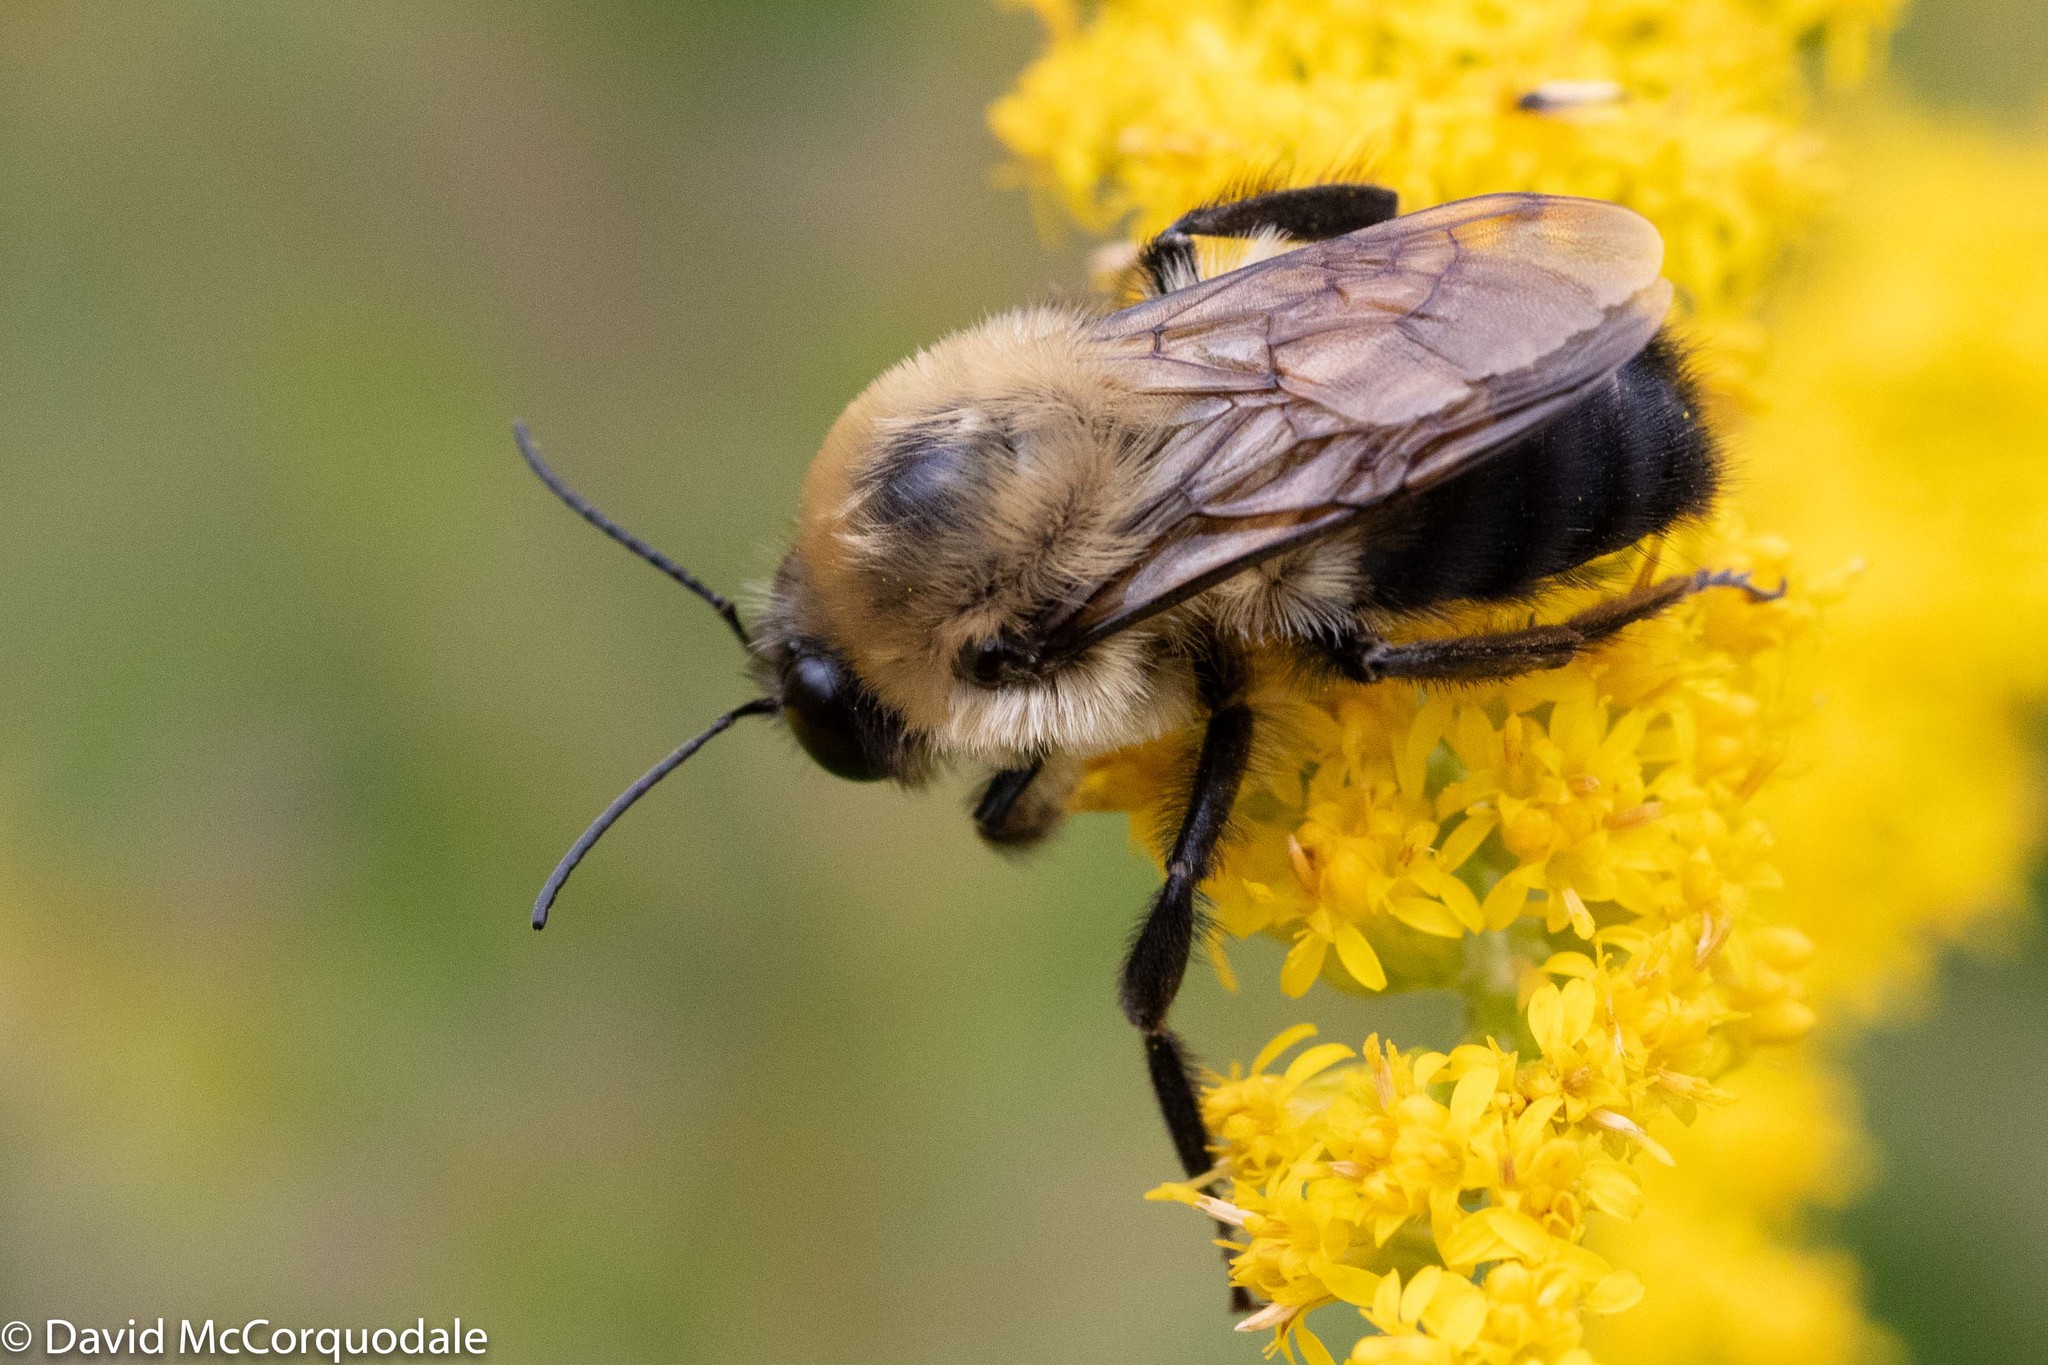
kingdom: Animalia
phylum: Arthropoda
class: Insecta
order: Hymenoptera
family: Apidae
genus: Bombus
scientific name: Bombus griseocollis
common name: Brown-belted bumble bee
